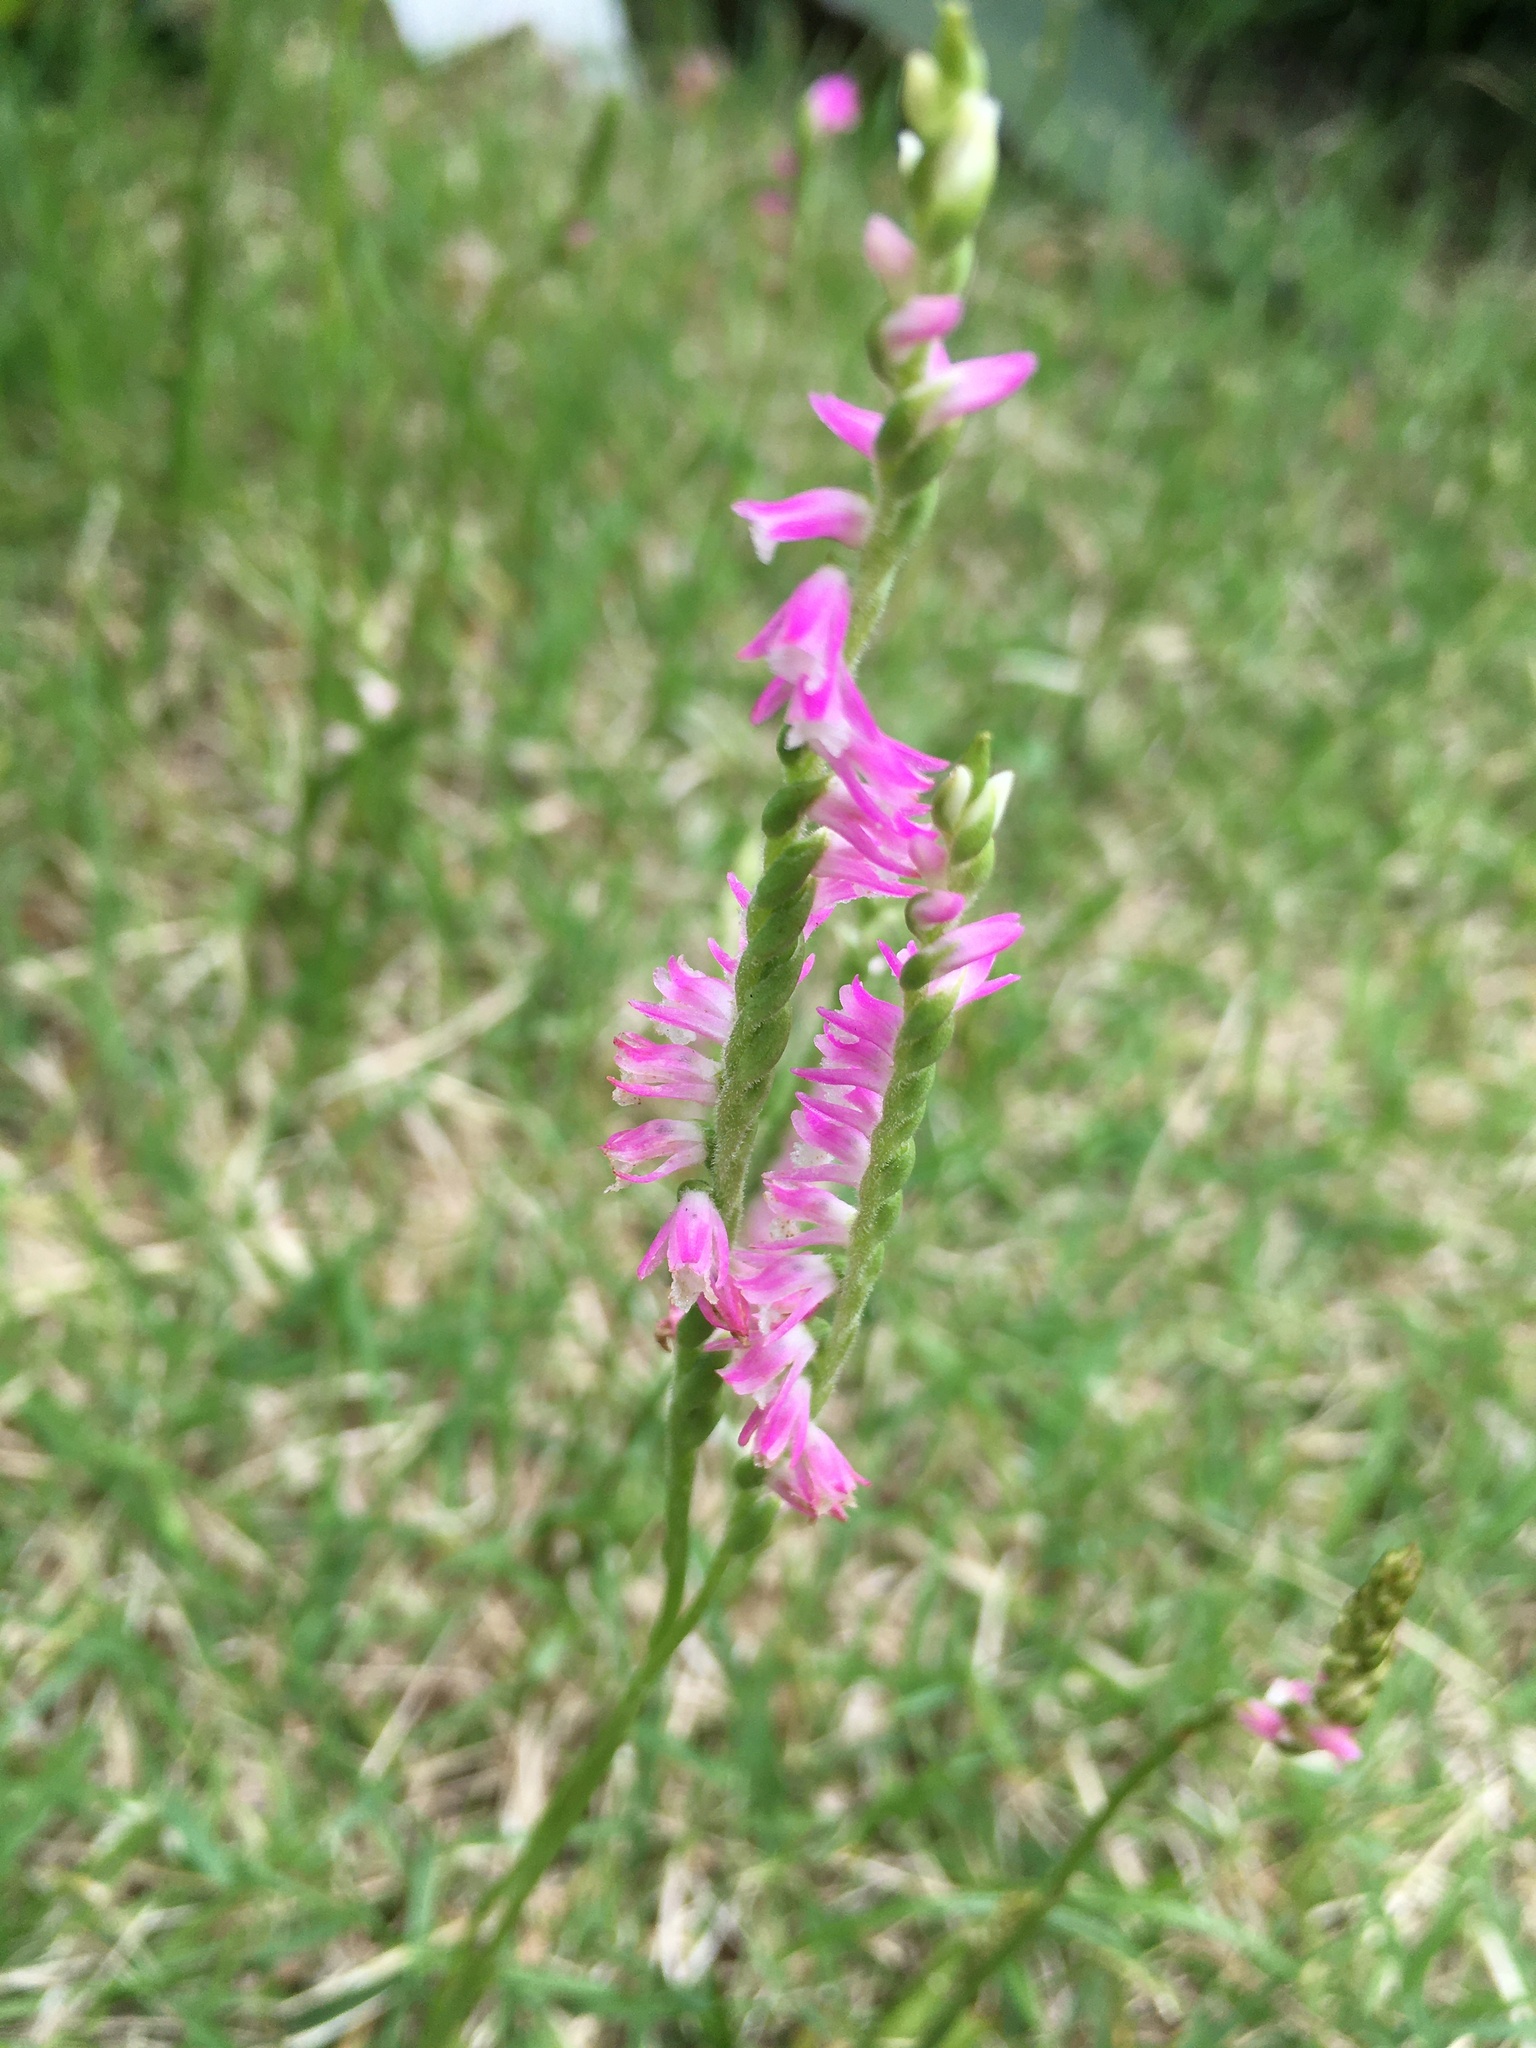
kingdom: Plantae
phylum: Tracheophyta
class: Liliopsida
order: Asparagales
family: Orchidaceae
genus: Spiranthes
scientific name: Spiranthes australis
